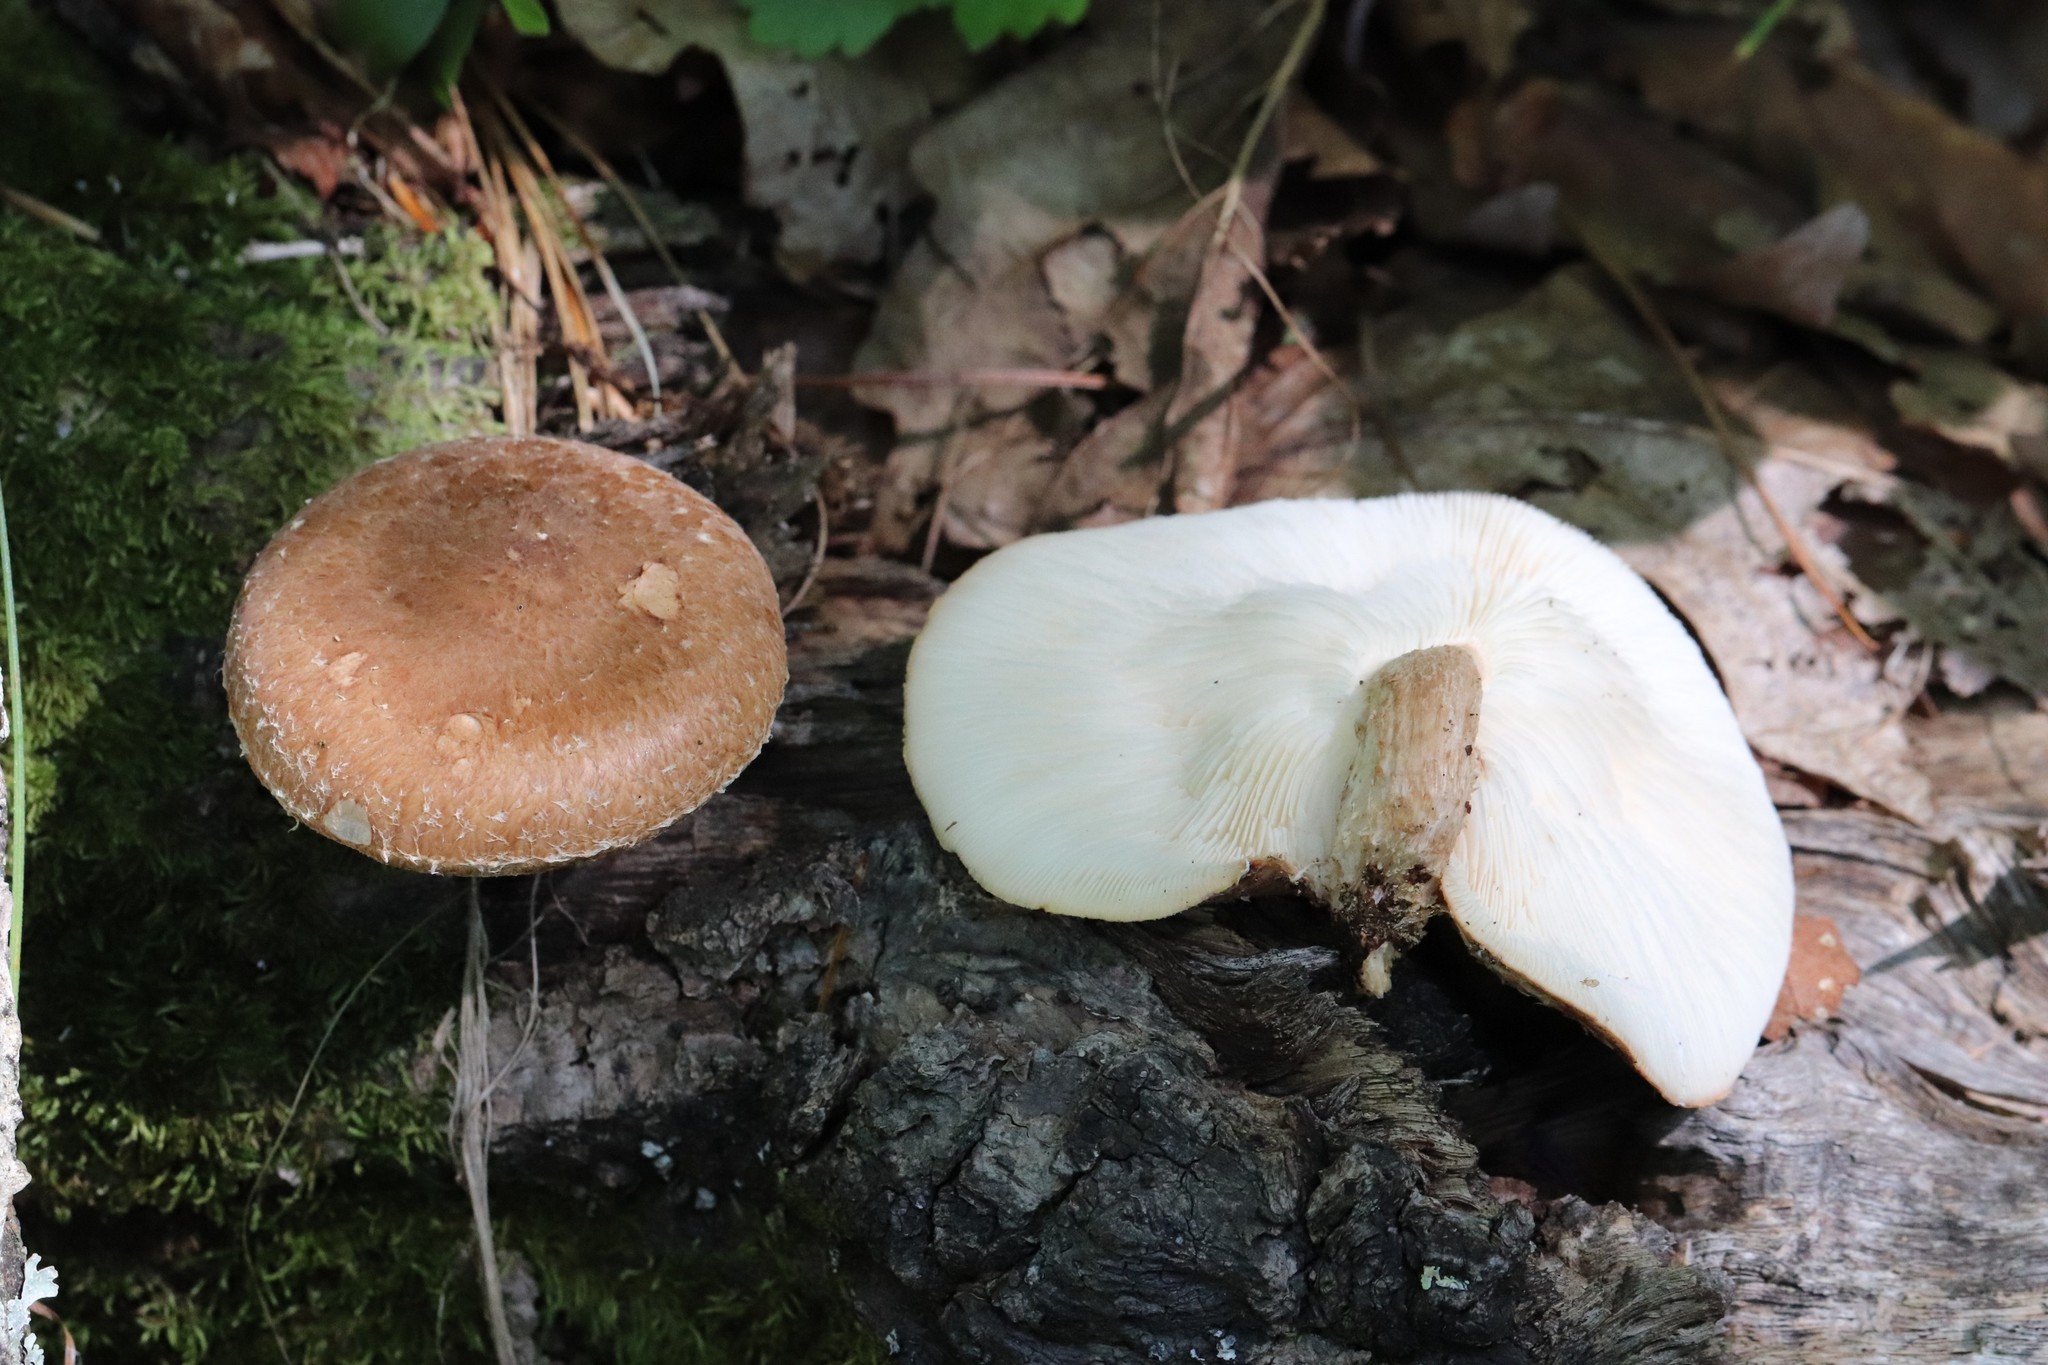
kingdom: Fungi
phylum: Basidiomycota
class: Agaricomycetes
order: Agaricales
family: Omphalotaceae
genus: Lentinula
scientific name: Lentinula edodes
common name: Shiitake
